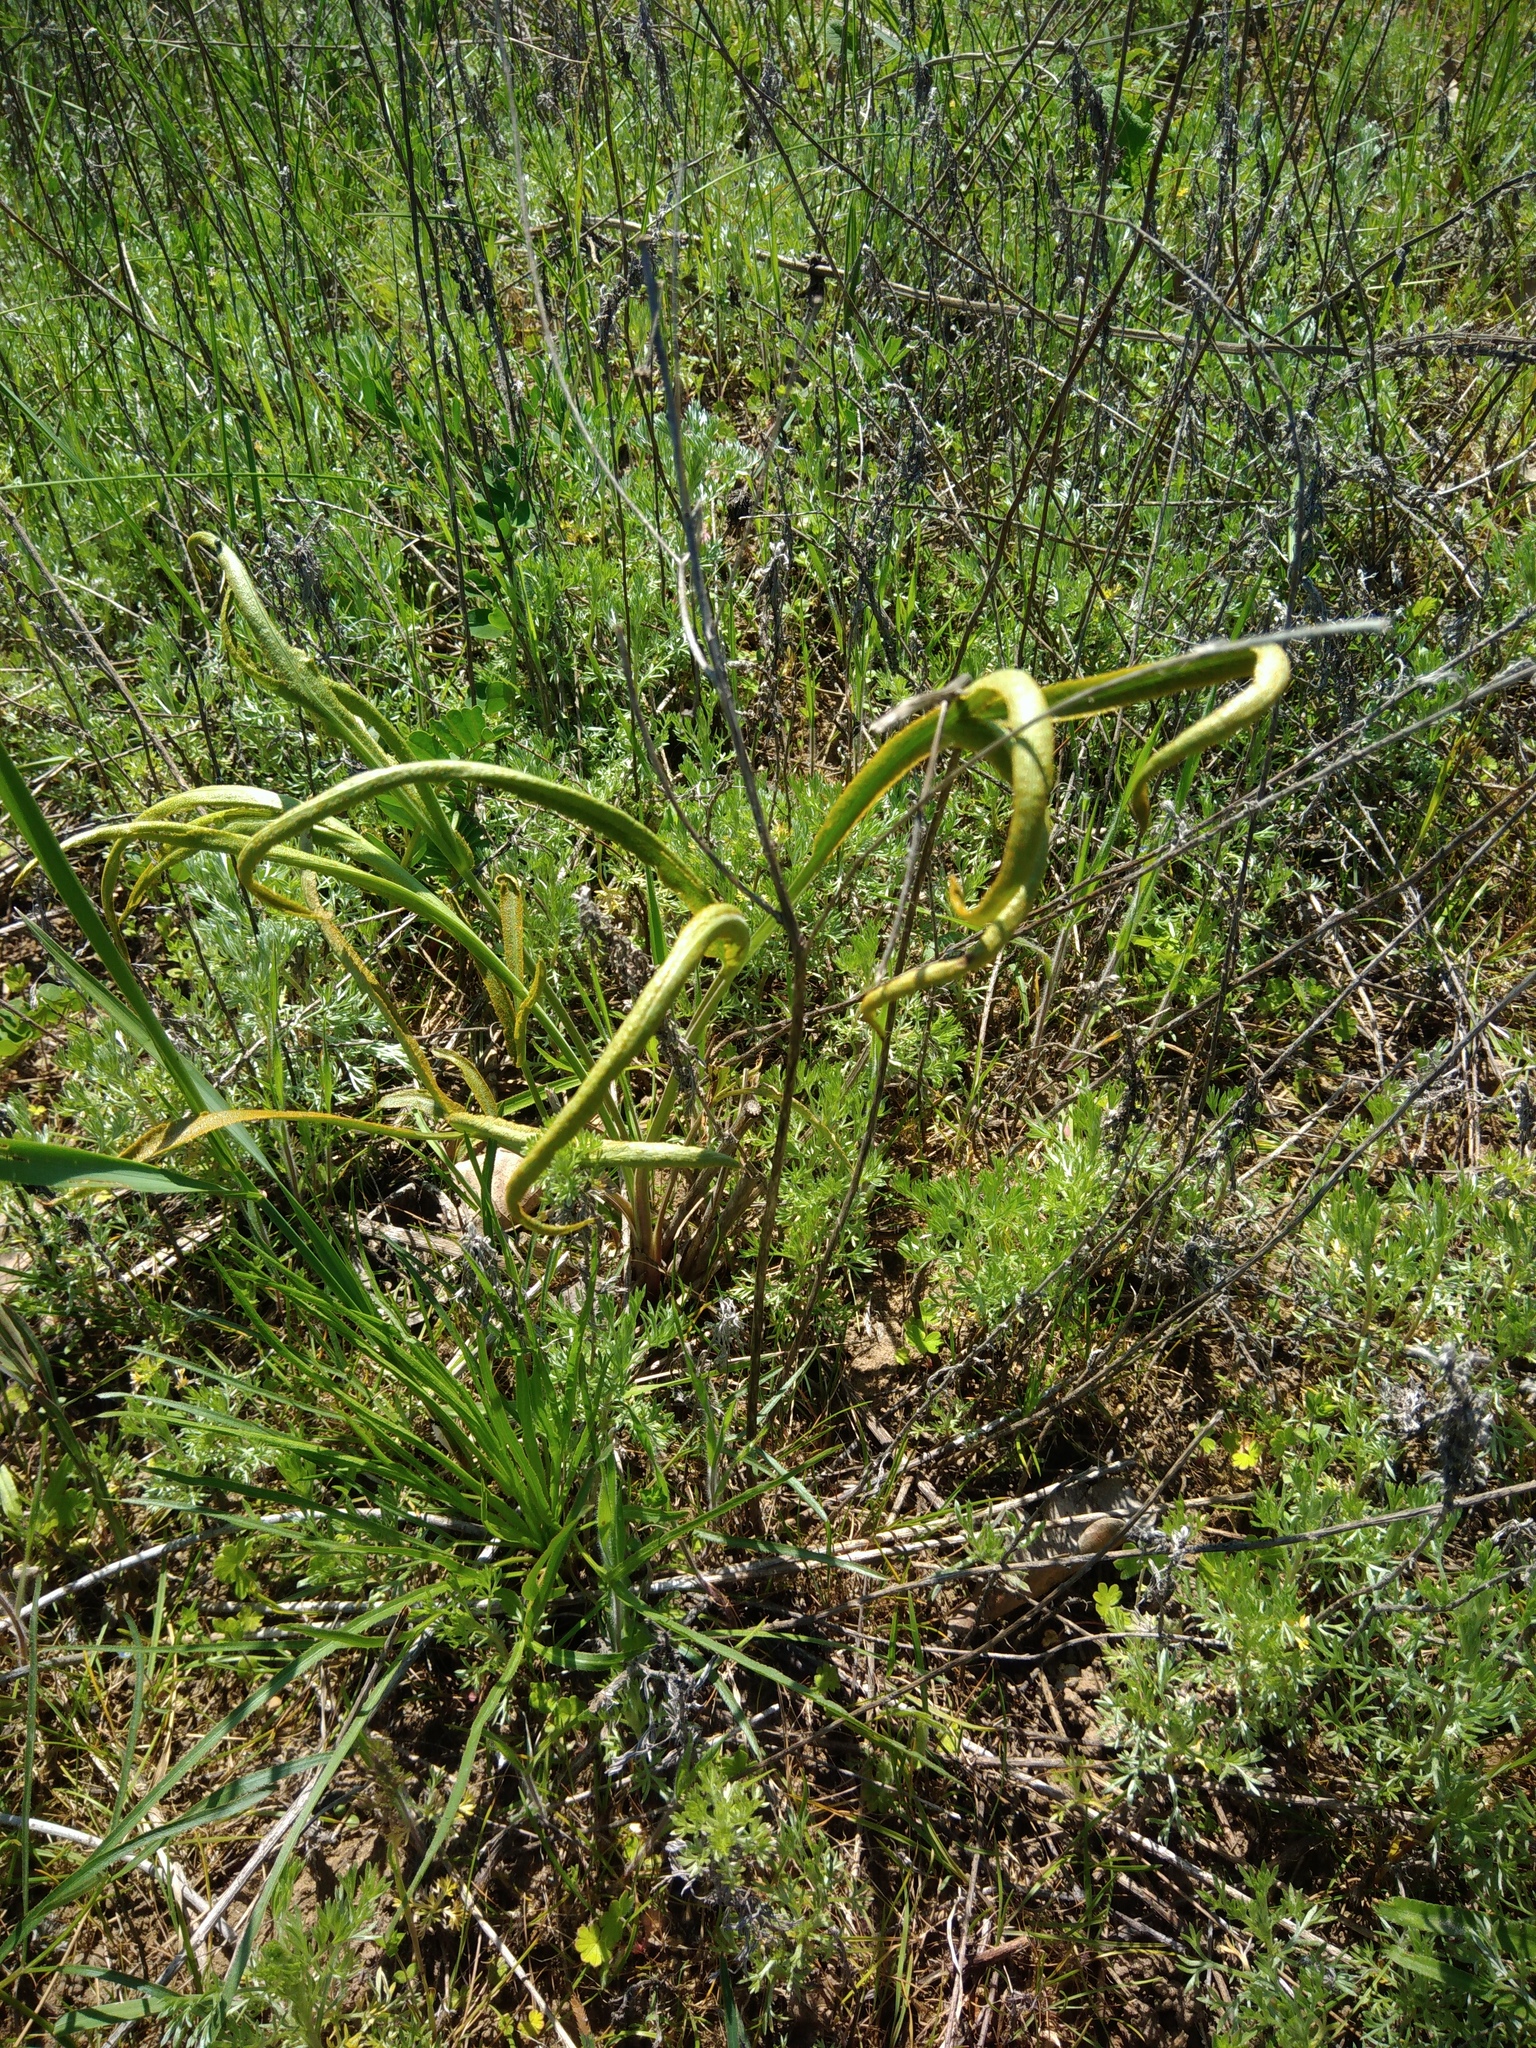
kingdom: Plantae
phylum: Tracheophyta
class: Magnoliopsida
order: Apiales
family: Apiaceae
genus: Falcaria
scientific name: Falcaria vulgaris
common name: Longleaf
